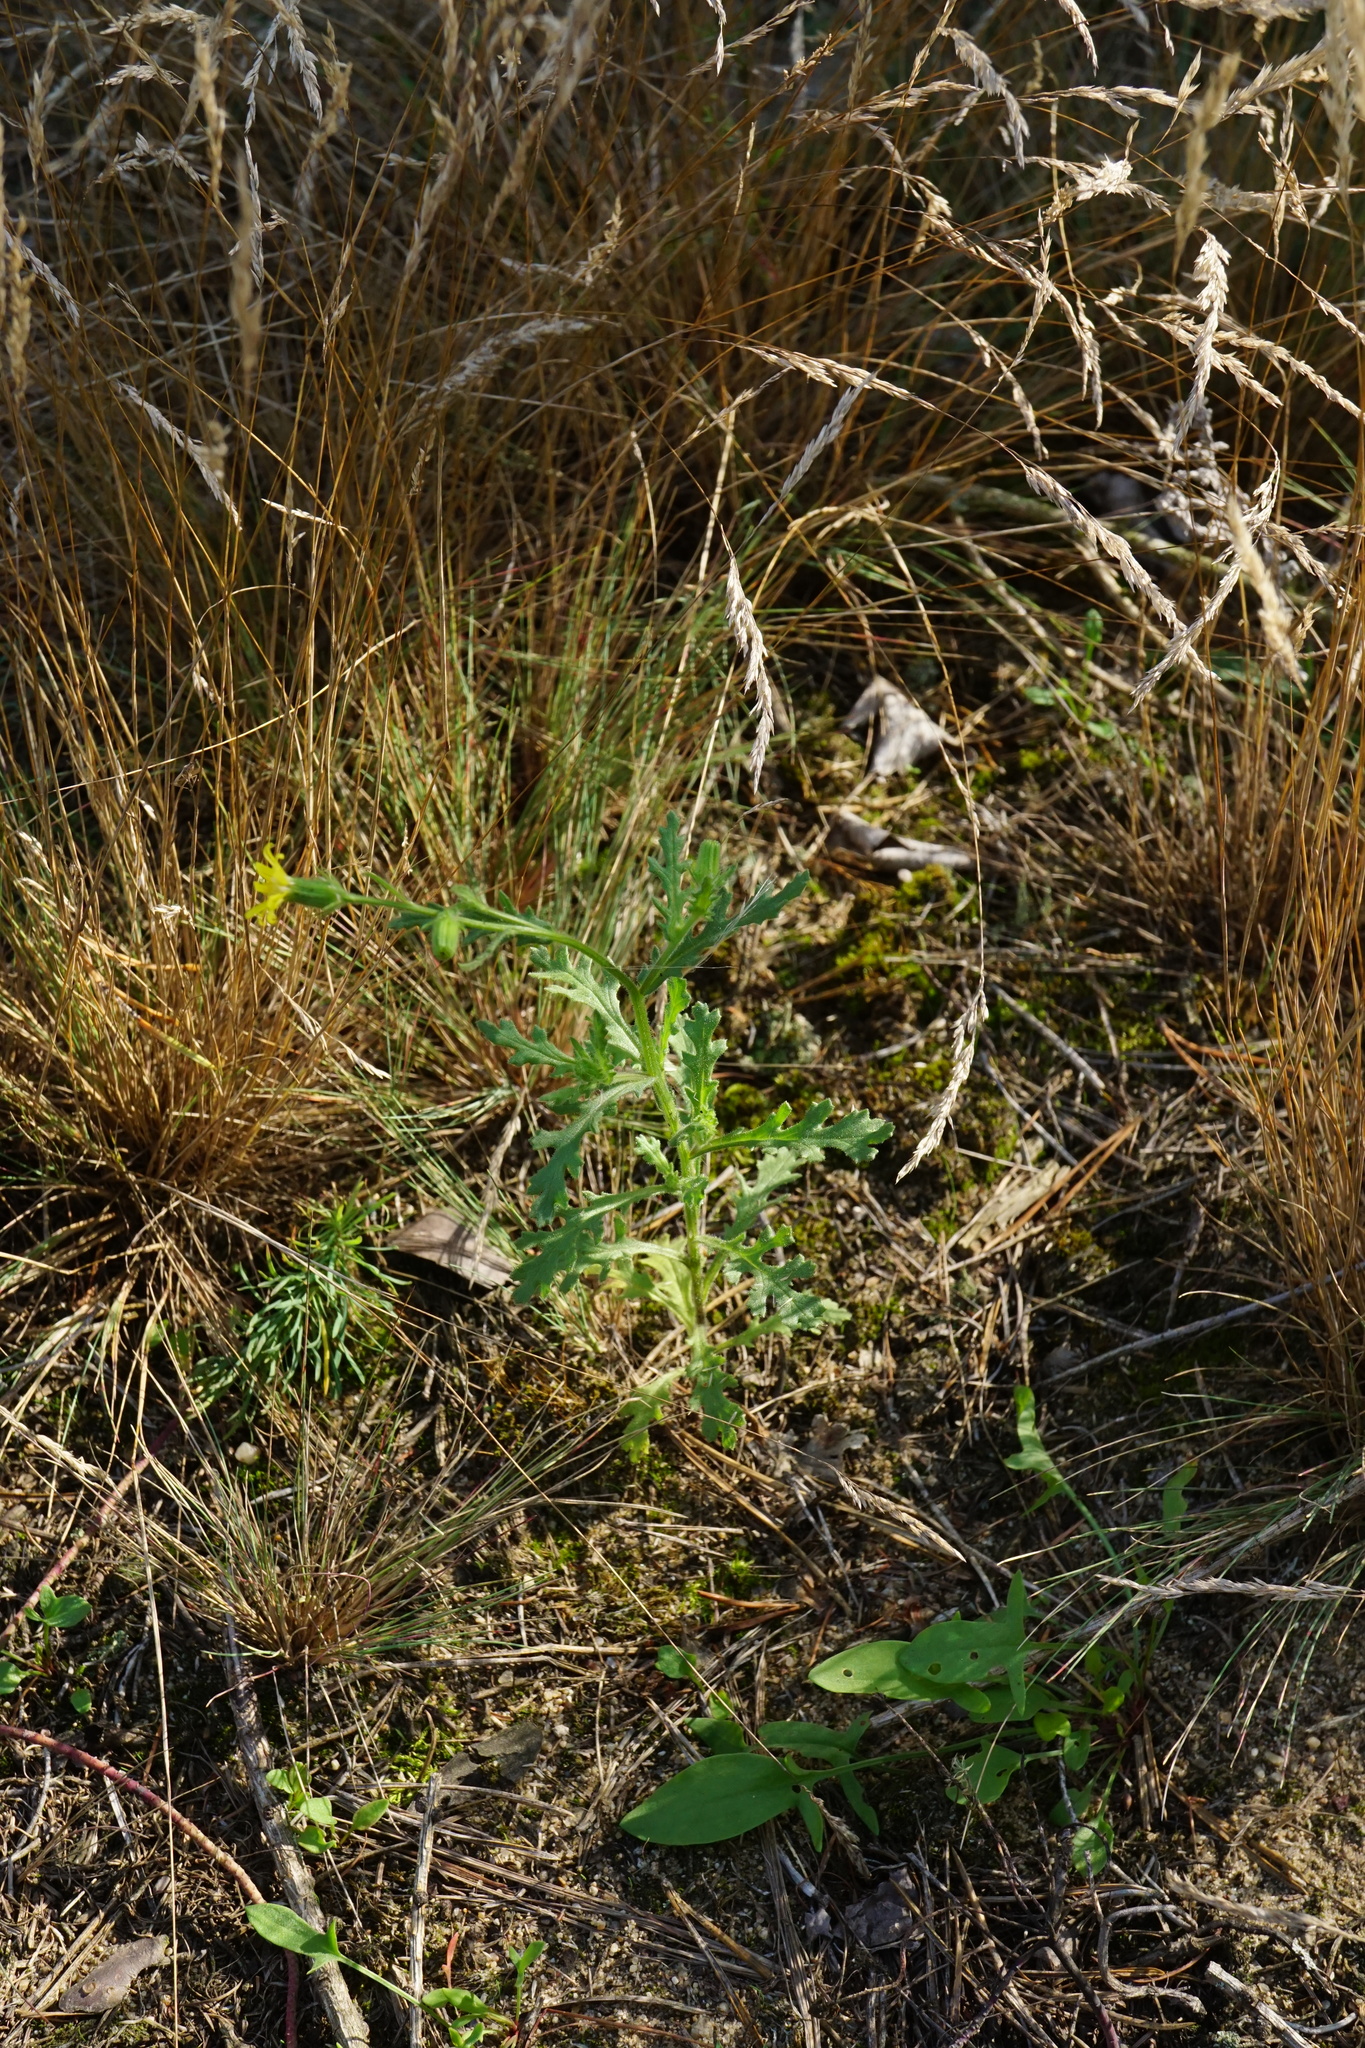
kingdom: Plantae
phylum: Tracheophyta
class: Magnoliopsida
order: Asterales
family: Asteraceae
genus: Senecio
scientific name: Senecio viscosus
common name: Sticky groundsel
